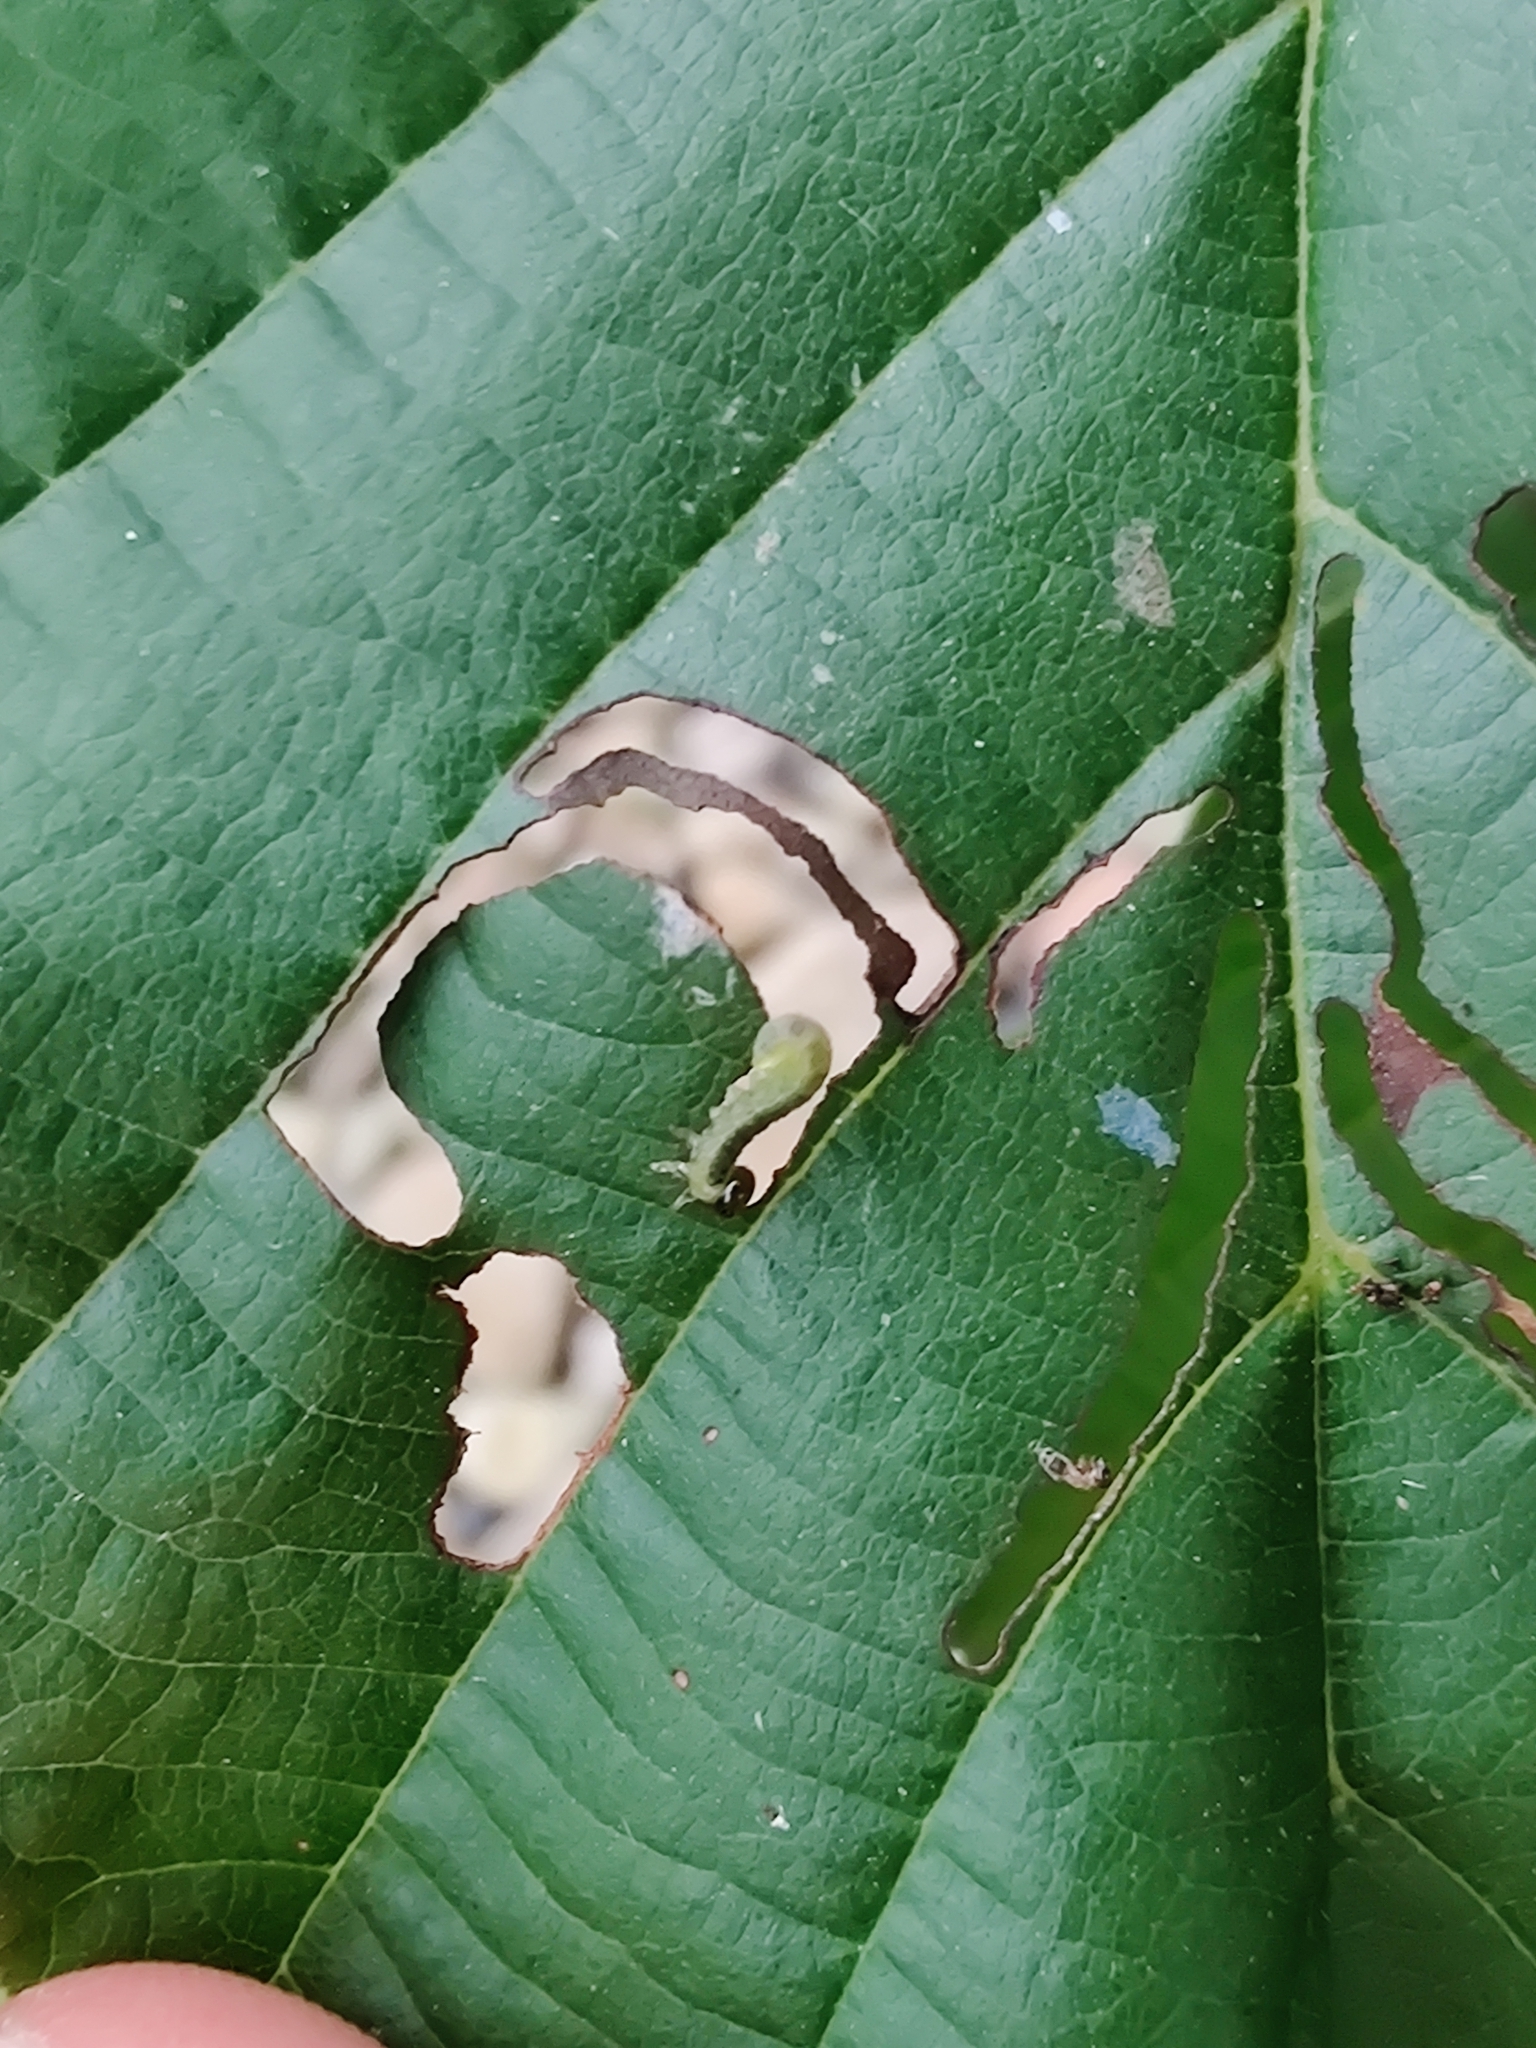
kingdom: Animalia
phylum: Arthropoda
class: Insecta
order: Hymenoptera
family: Tenthredinidae
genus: Hemichroa
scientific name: Hemichroa australis
